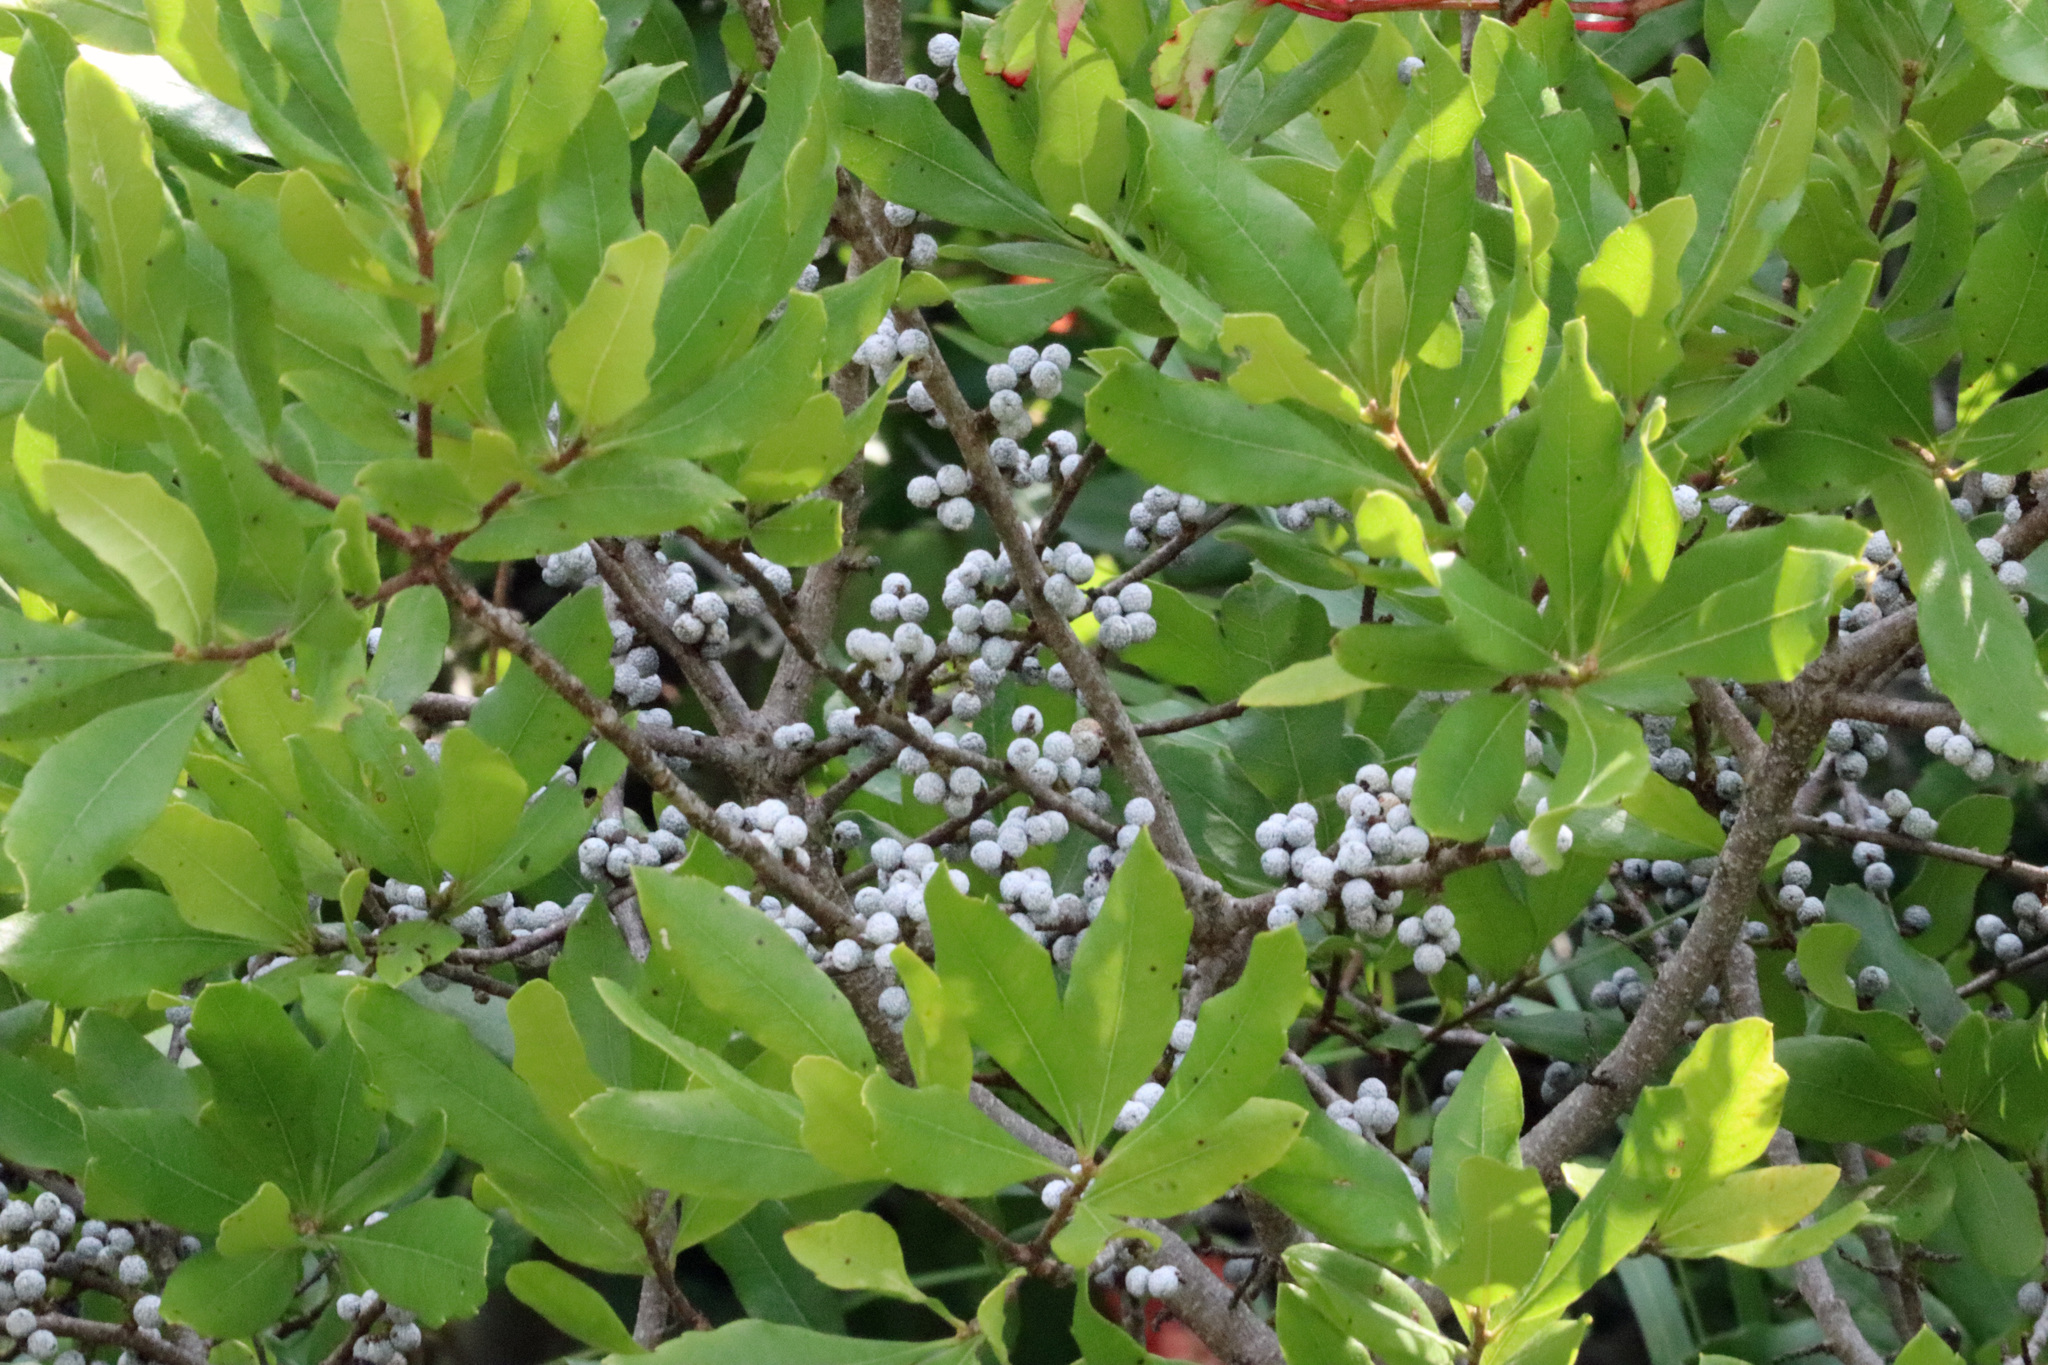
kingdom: Plantae
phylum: Tracheophyta
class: Magnoliopsida
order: Fagales
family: Myricaceae
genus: Morella
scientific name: Morella pensylvanica
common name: Northern bayberry
